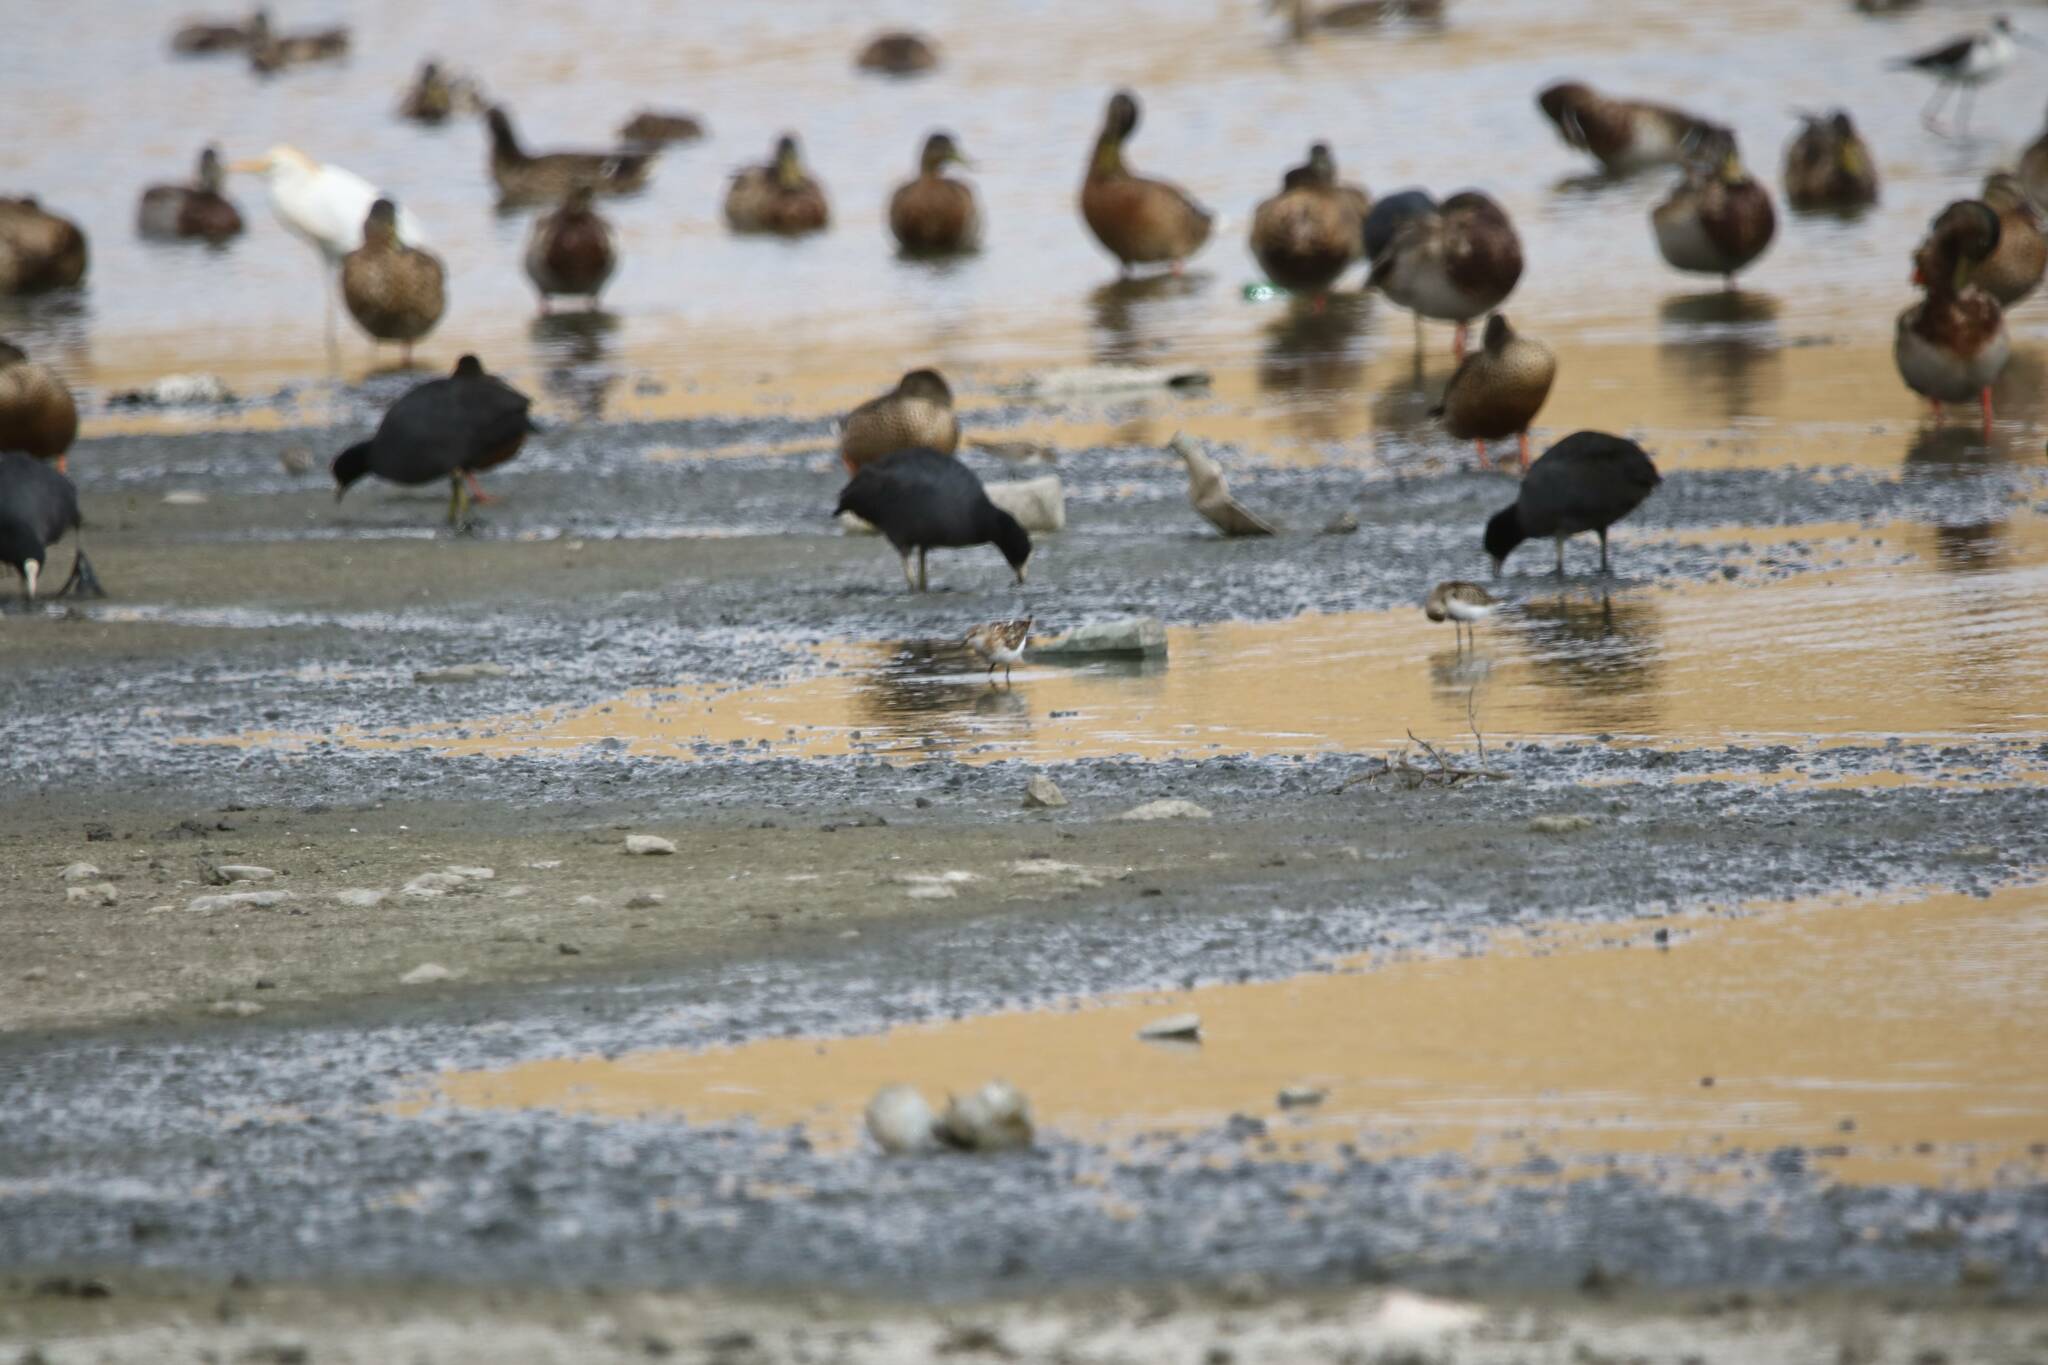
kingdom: Animalia
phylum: Chordata
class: Aves
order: Gruiformes
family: Rallidae
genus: Fulica
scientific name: Fulica atra
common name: Eurasian coot
